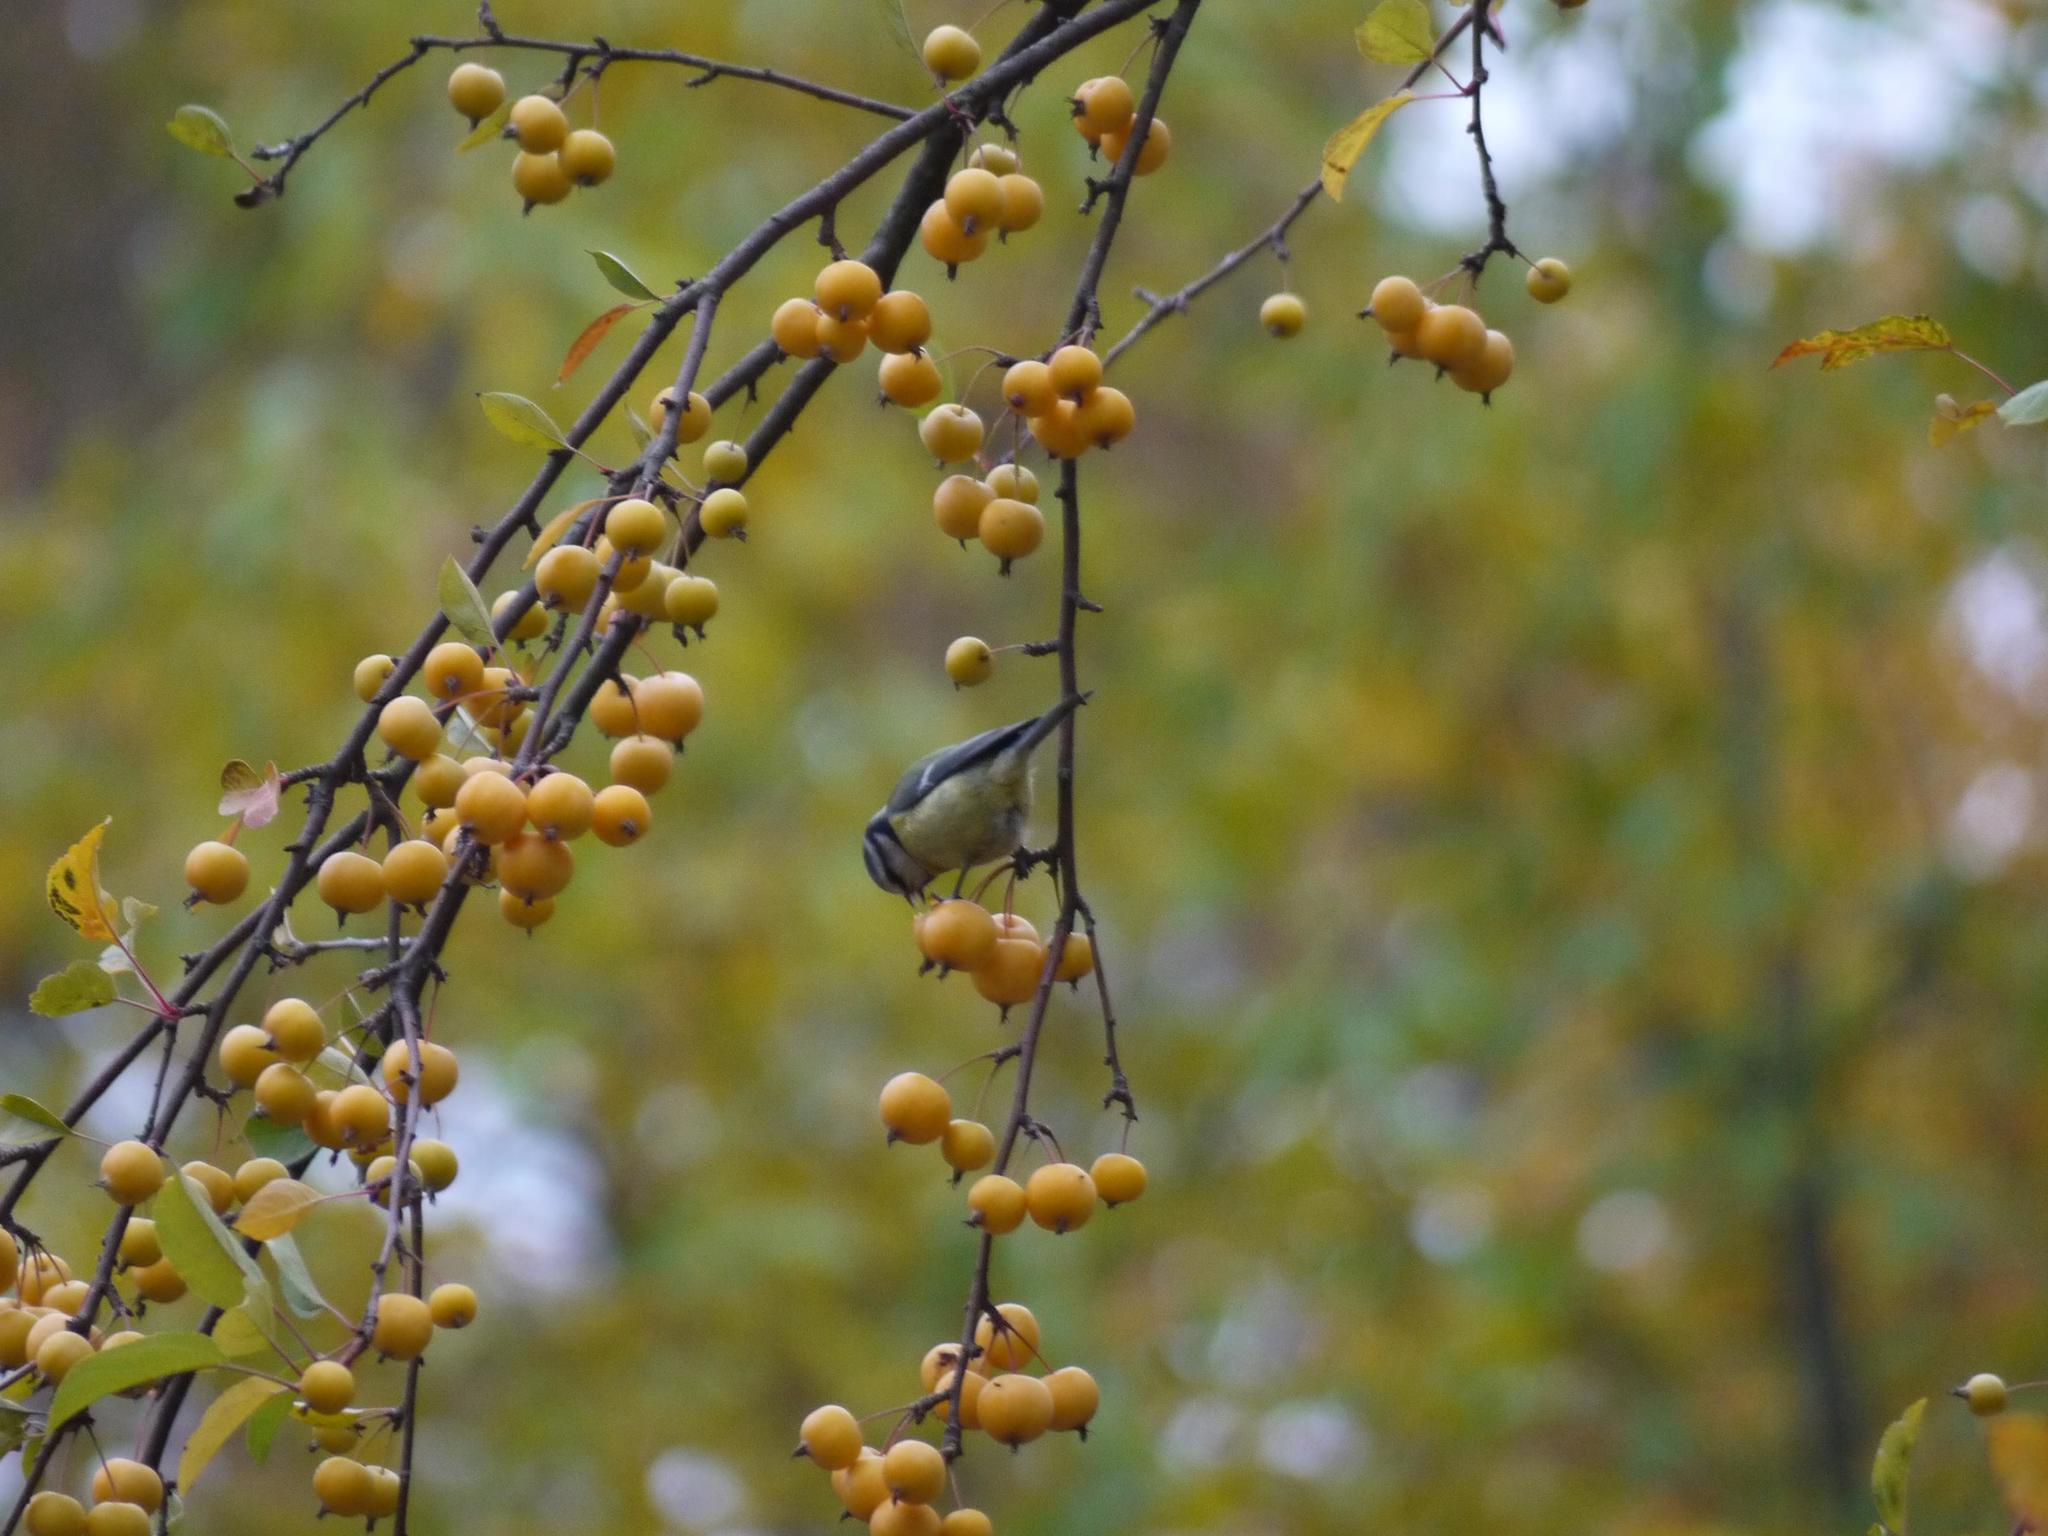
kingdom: Animalia
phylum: Chordata
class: Aves
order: Passeriformes
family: Paridae
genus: Cyanistes
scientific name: Cyanistes caeruleus
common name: Eurasian blue tit
